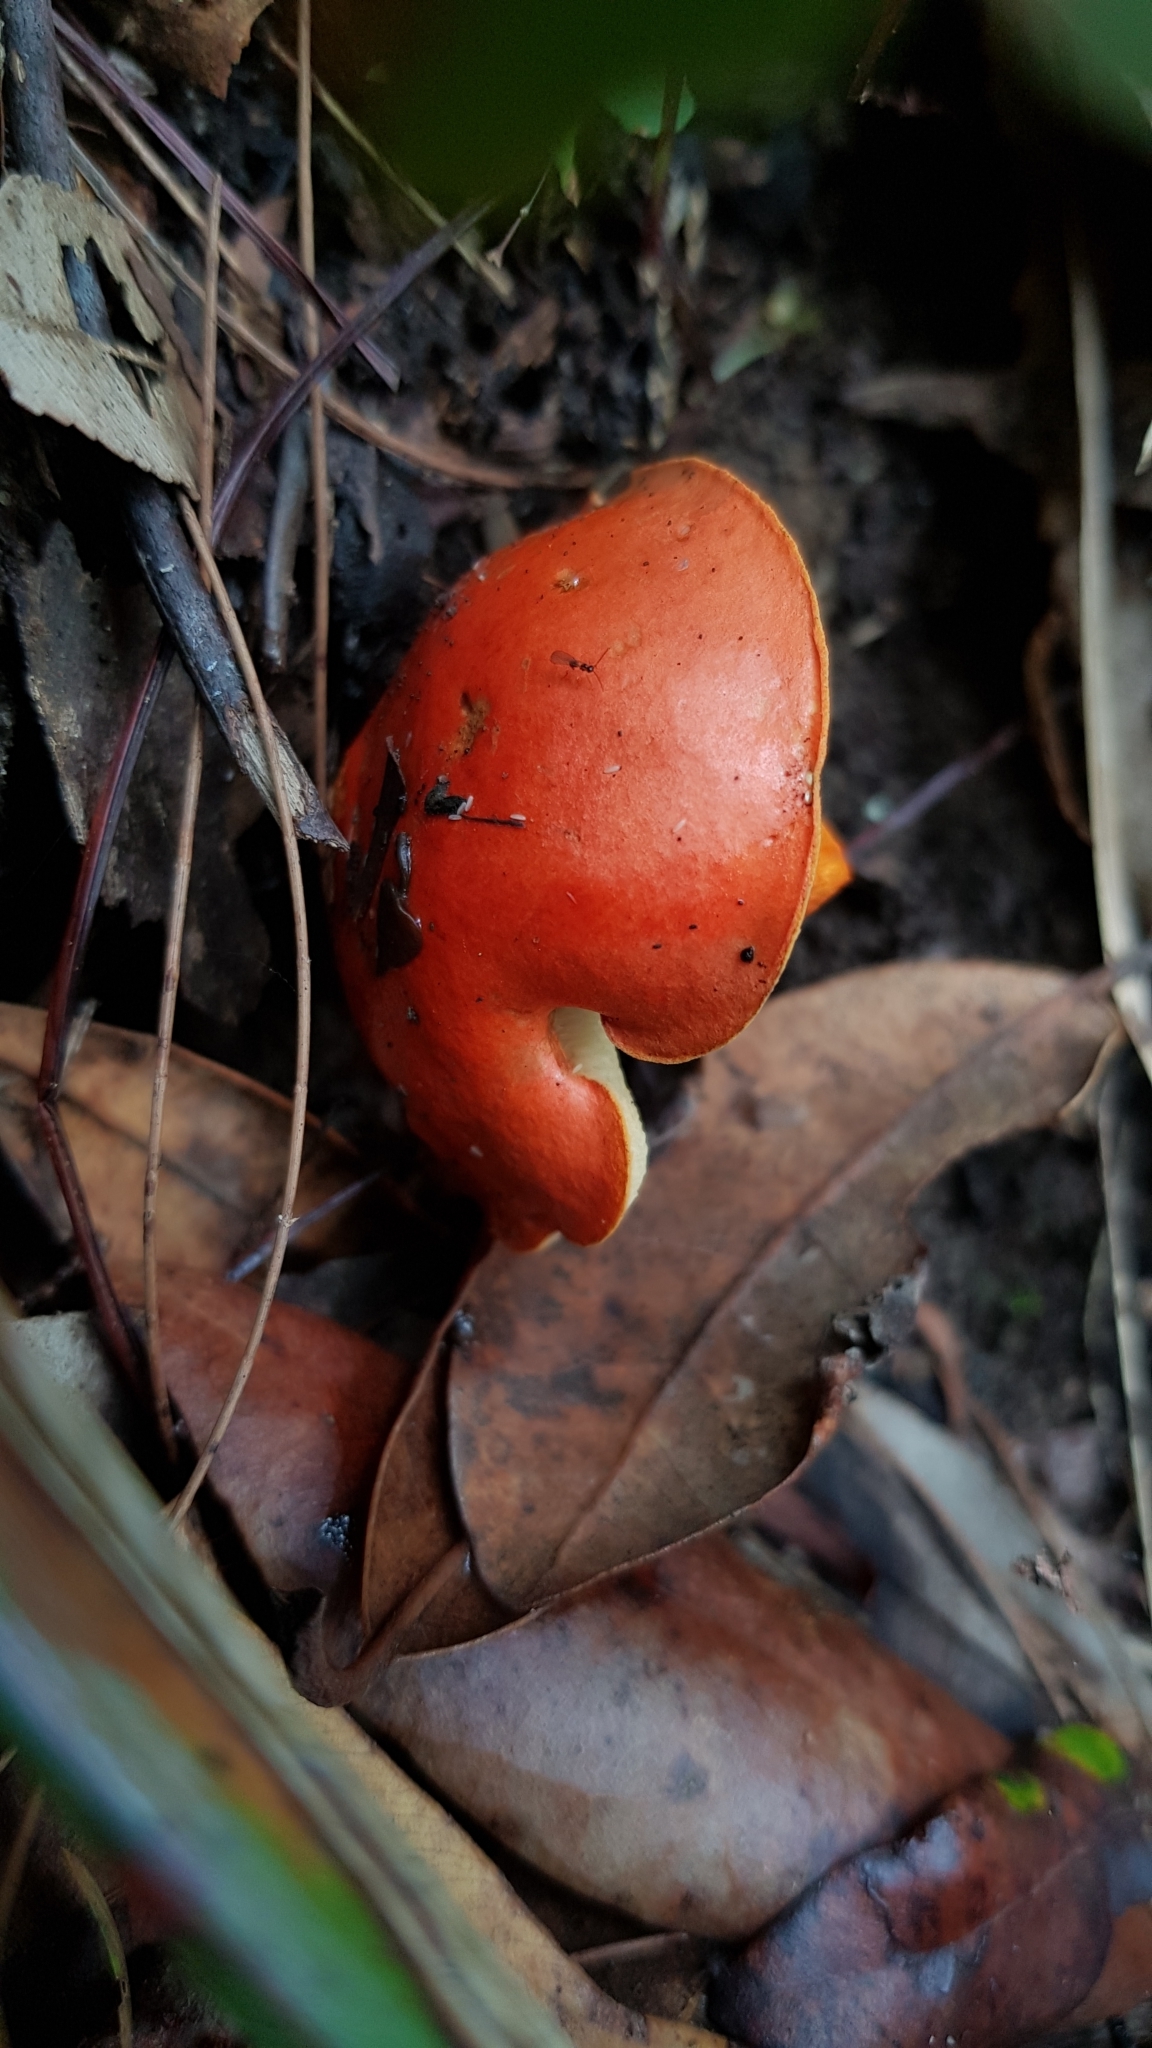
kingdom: Fungi
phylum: Basidiomycota
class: Agaricomycetes
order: Boletales
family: Boletaceae
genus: Tylopilus
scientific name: Tylopilus balloui
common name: Burnt-orange bolete
